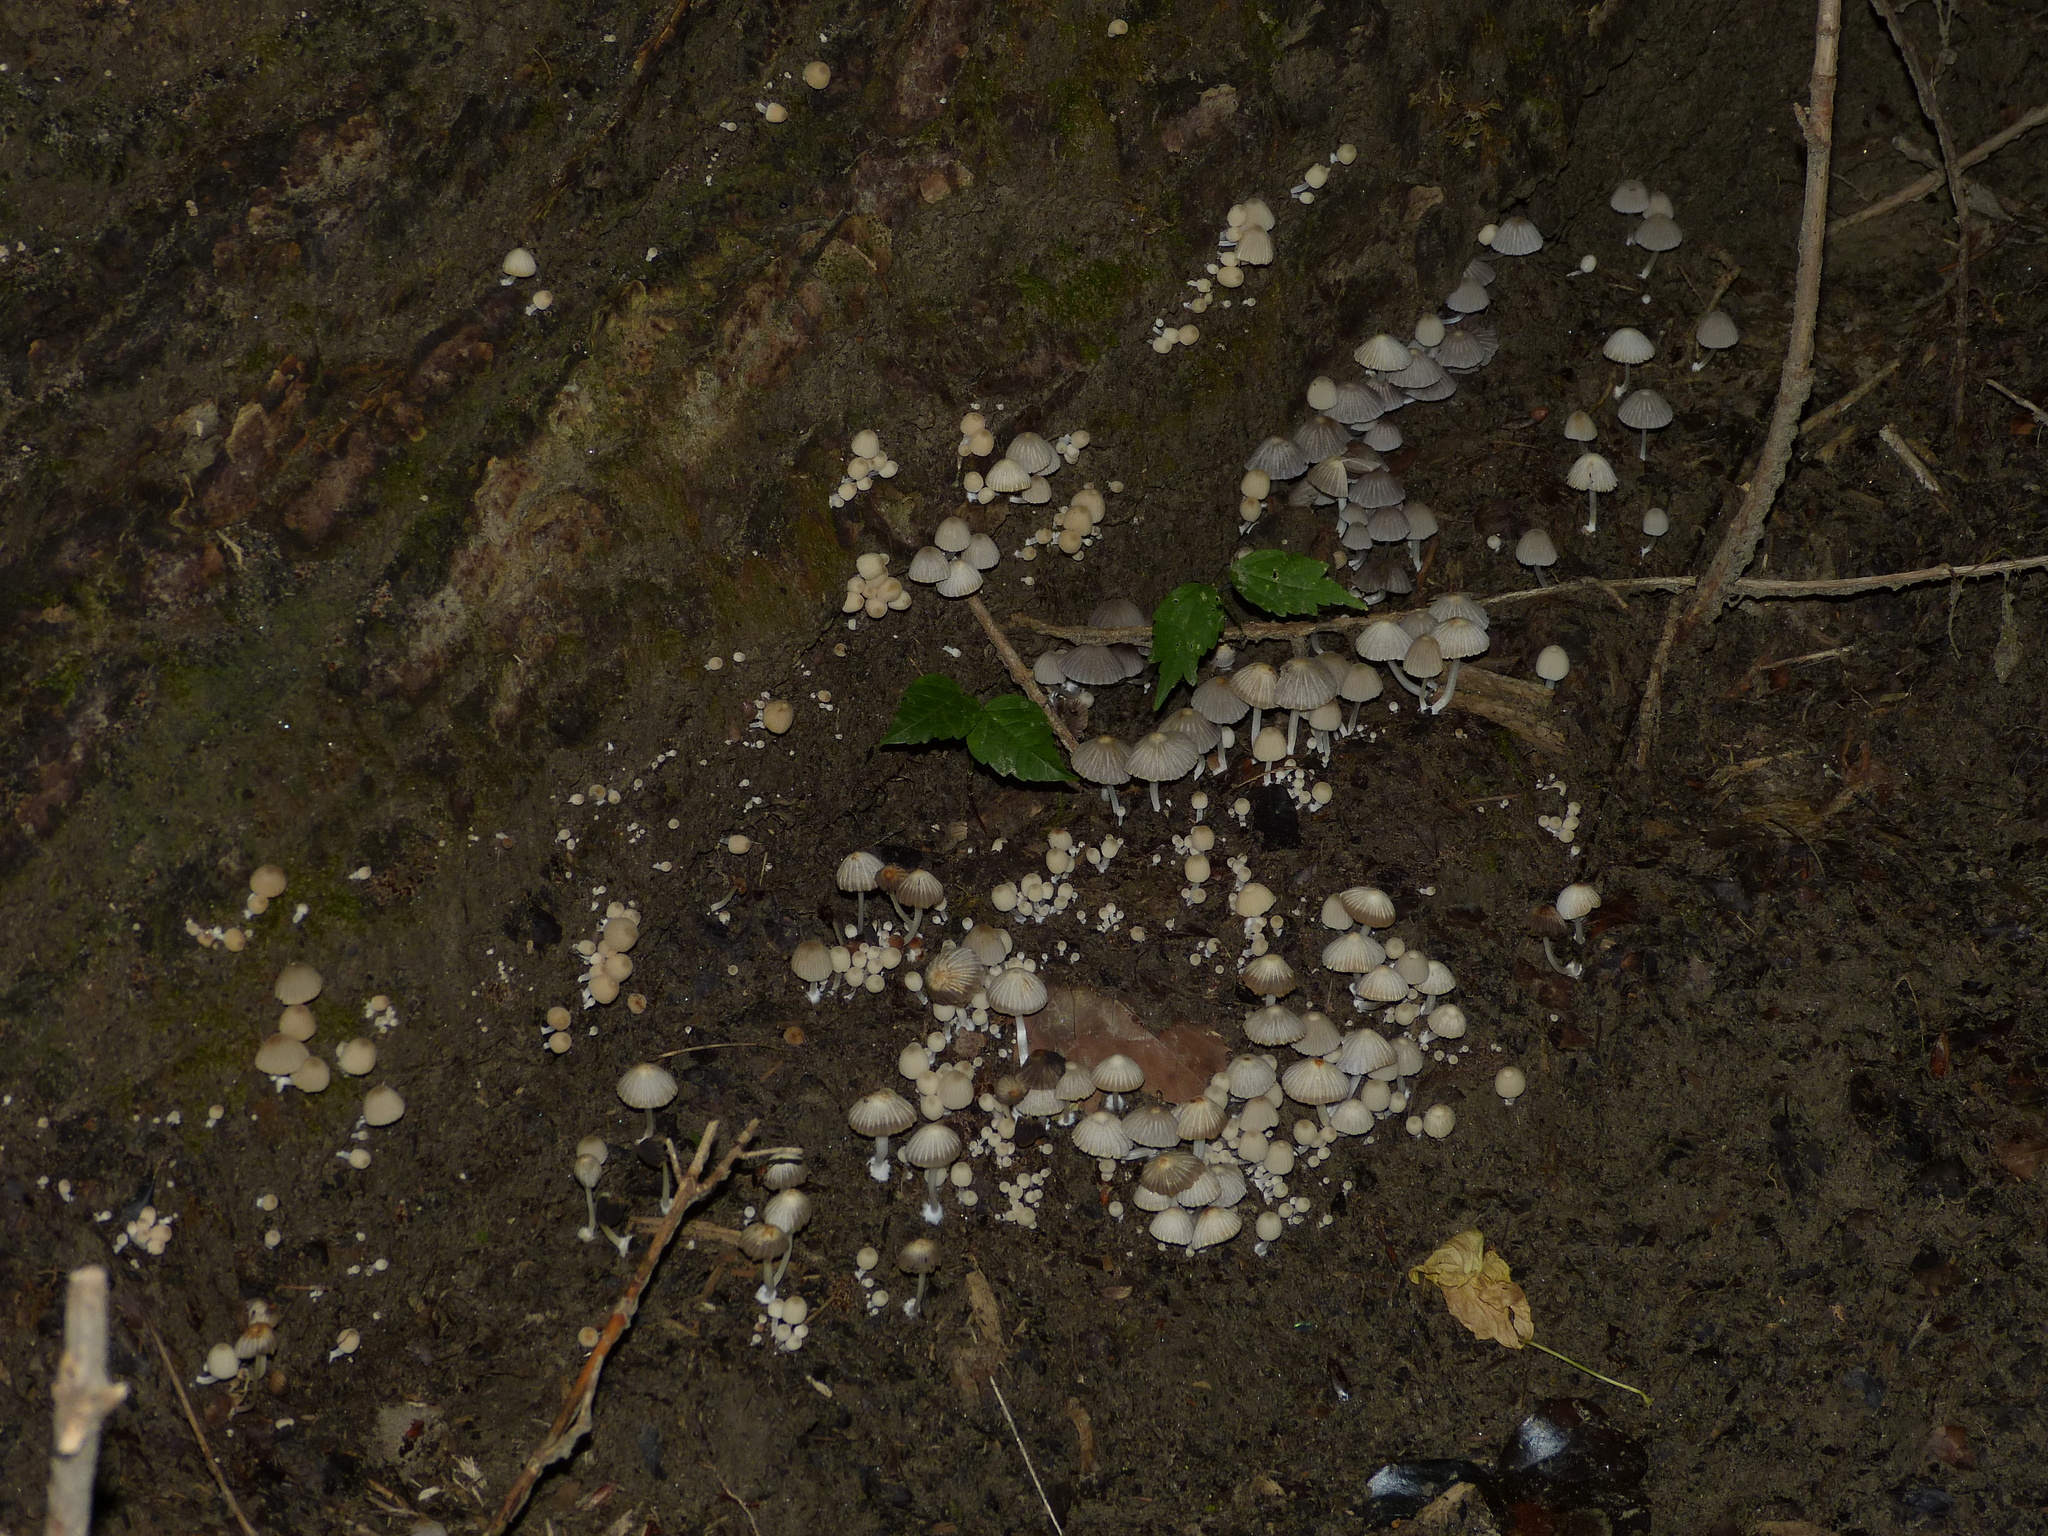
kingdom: Fungi
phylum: Basidiomycota
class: Agaricomycetes
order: Agaricales
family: Psathyrellaceae
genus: Coprinellus
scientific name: Coprinellus disseminatus
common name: Fairies' bonnets
